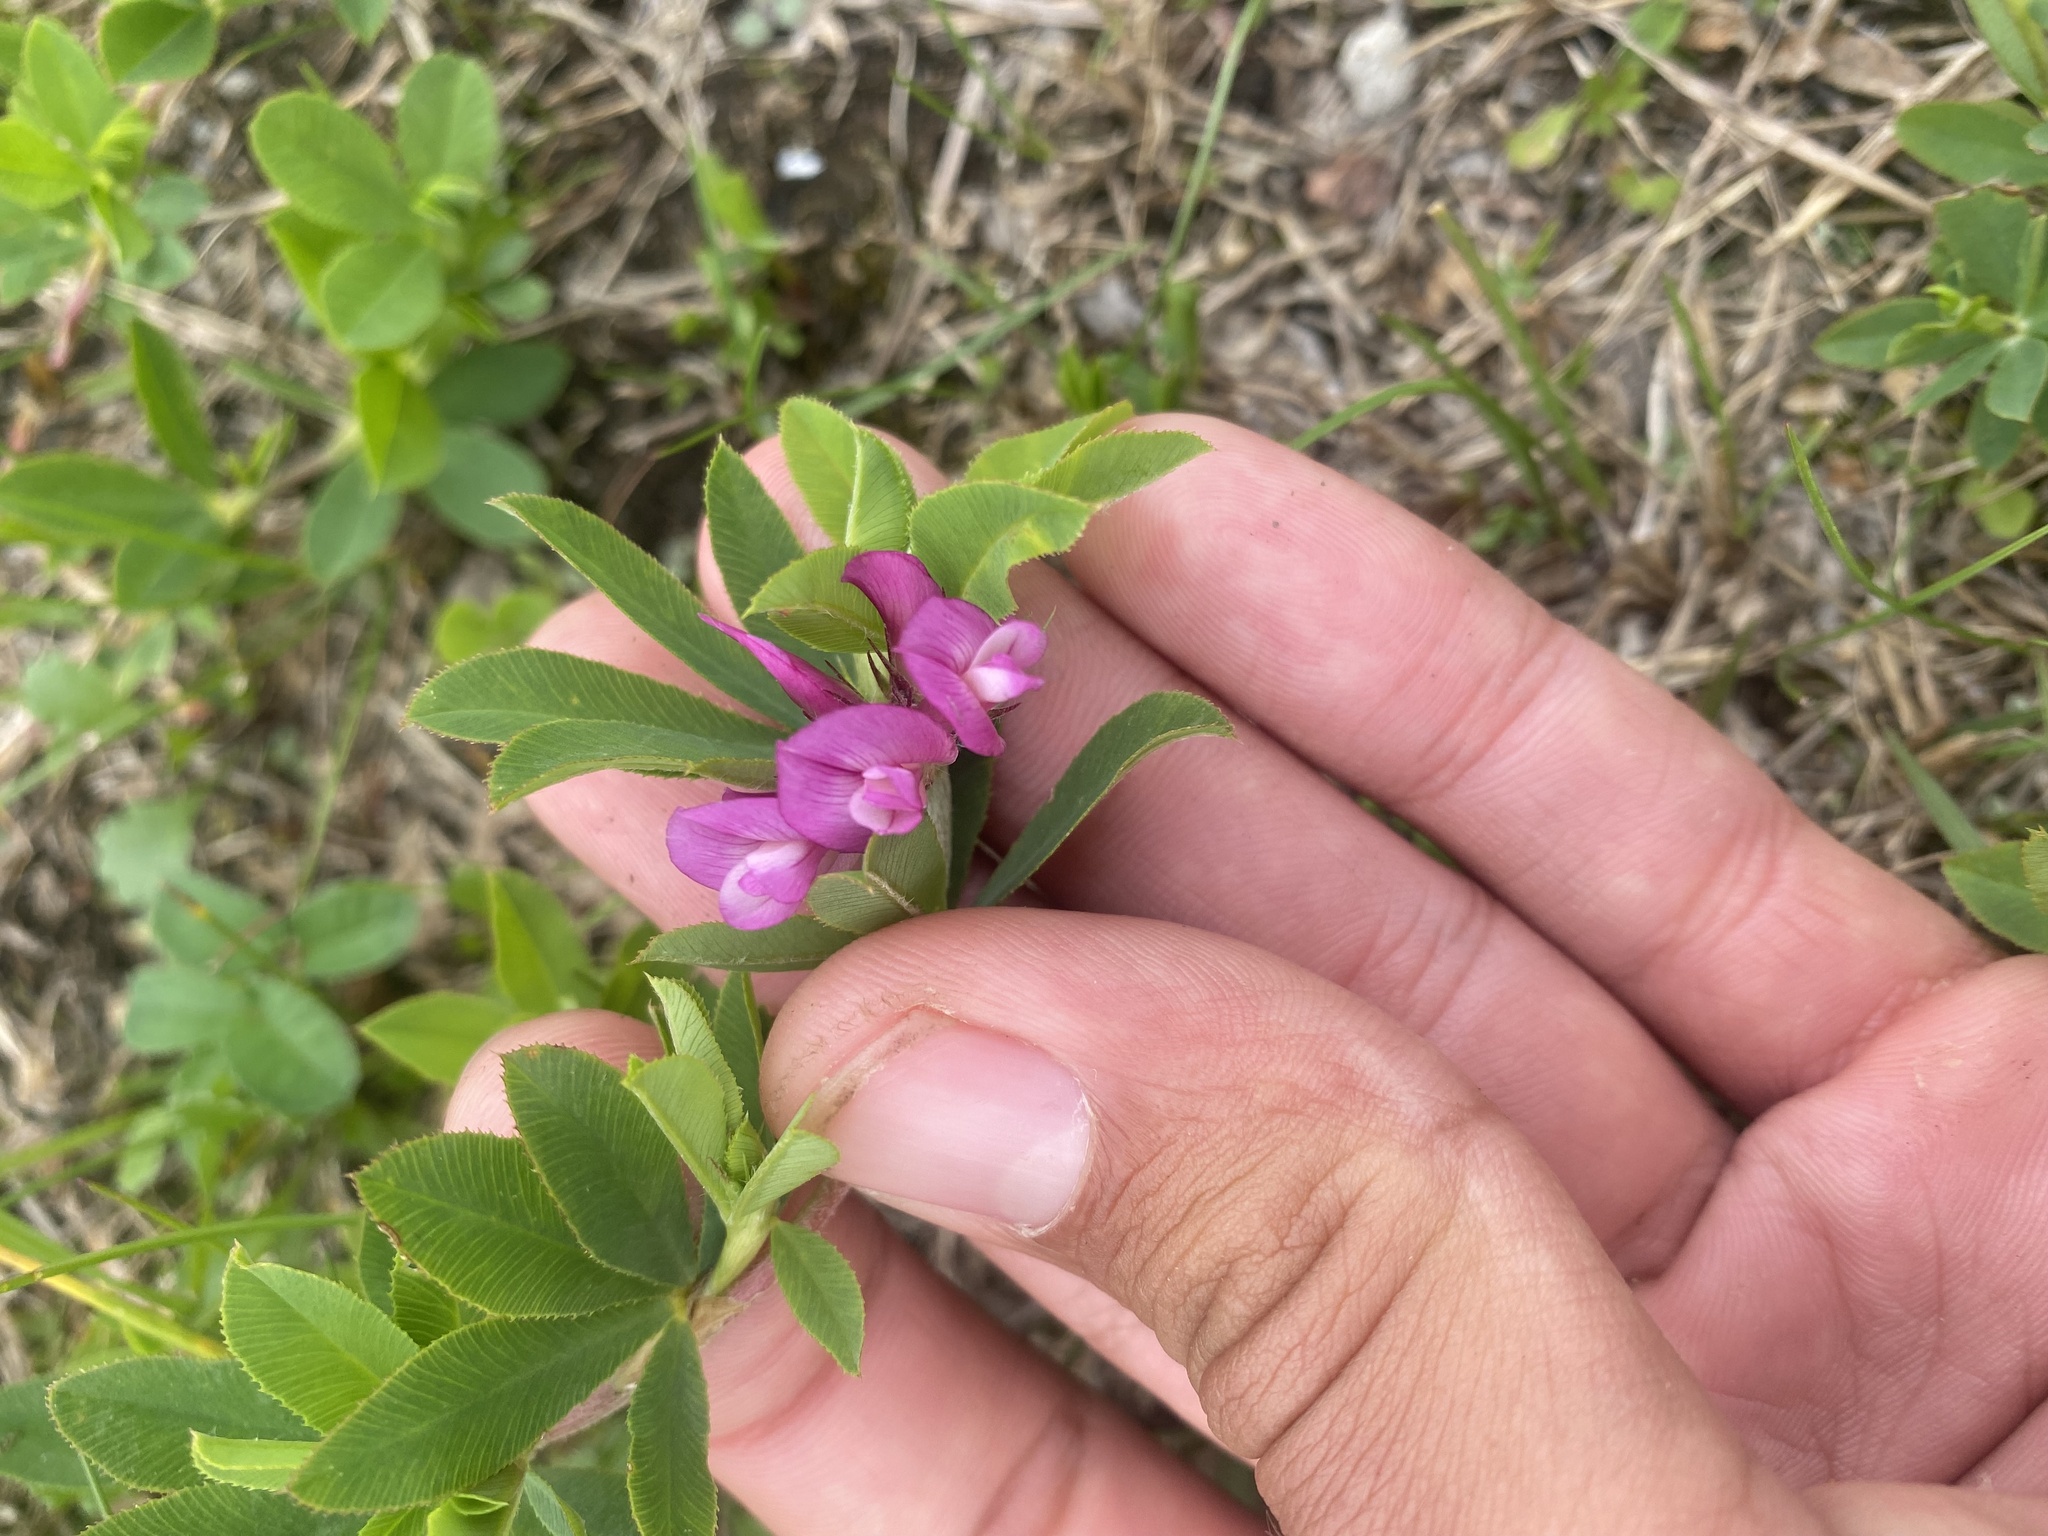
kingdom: Plantae
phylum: Tracheophyta
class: Magnoliopsida
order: Fabales
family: Fabaceae
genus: Trifolium
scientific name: Trifolium lupinaster
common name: Lupine clover
